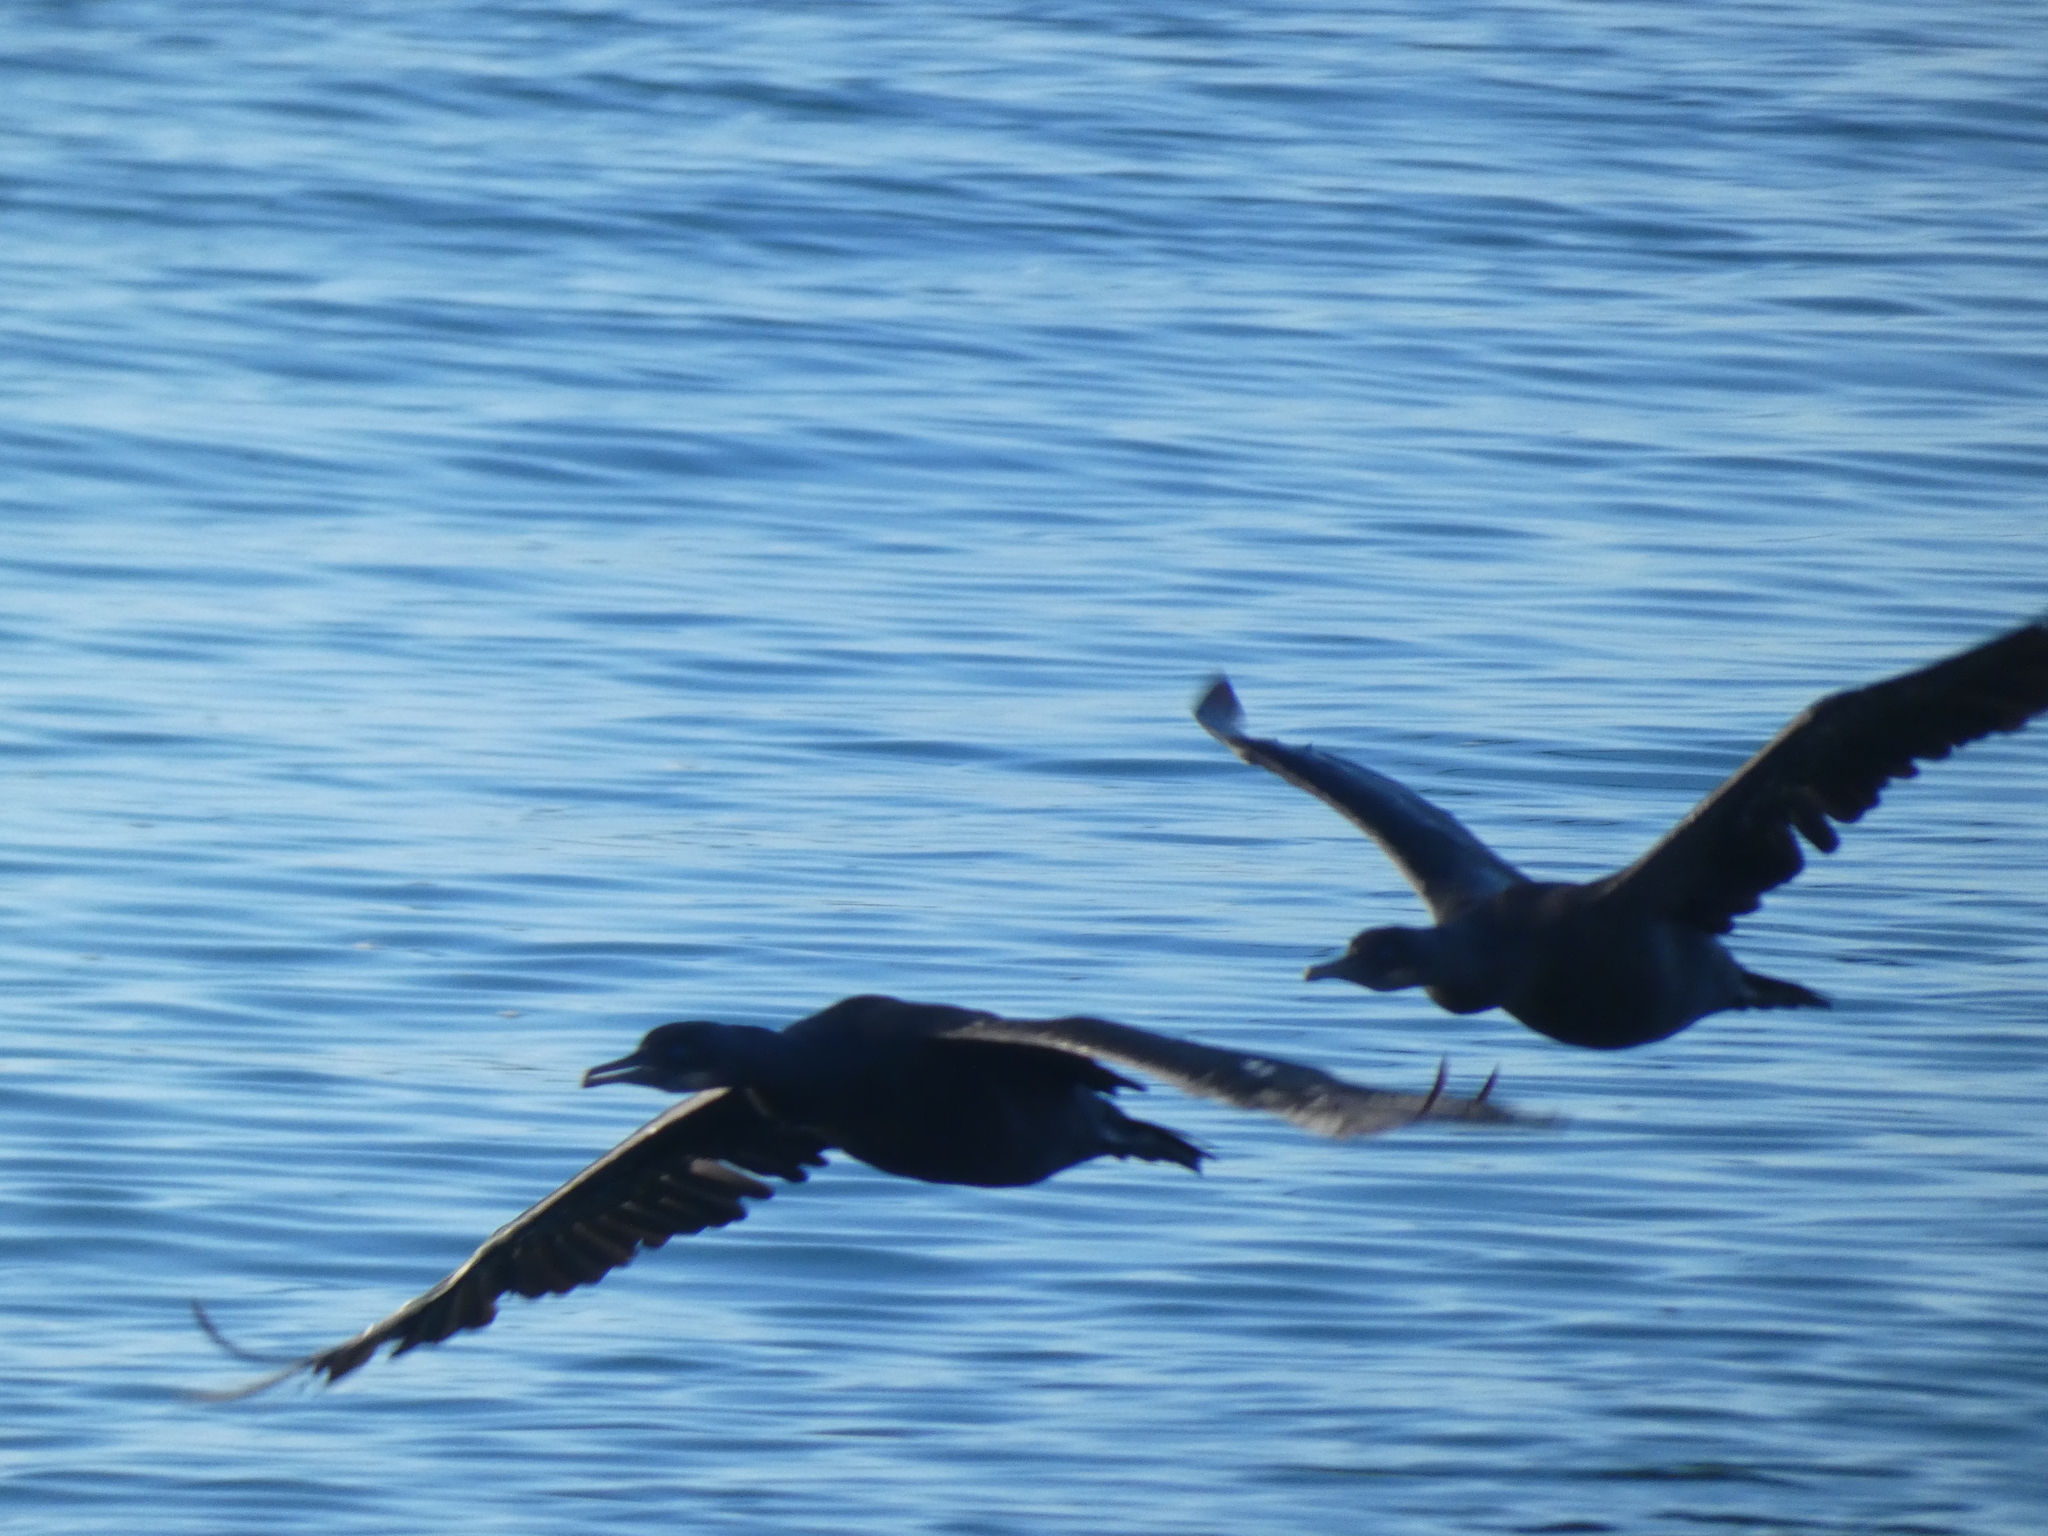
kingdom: Animalia
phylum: Chordata
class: Aves
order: Suliformes
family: Phalacrocoracidae
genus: Urile
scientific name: Urile penicillatus
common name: Brandt's cormorant
